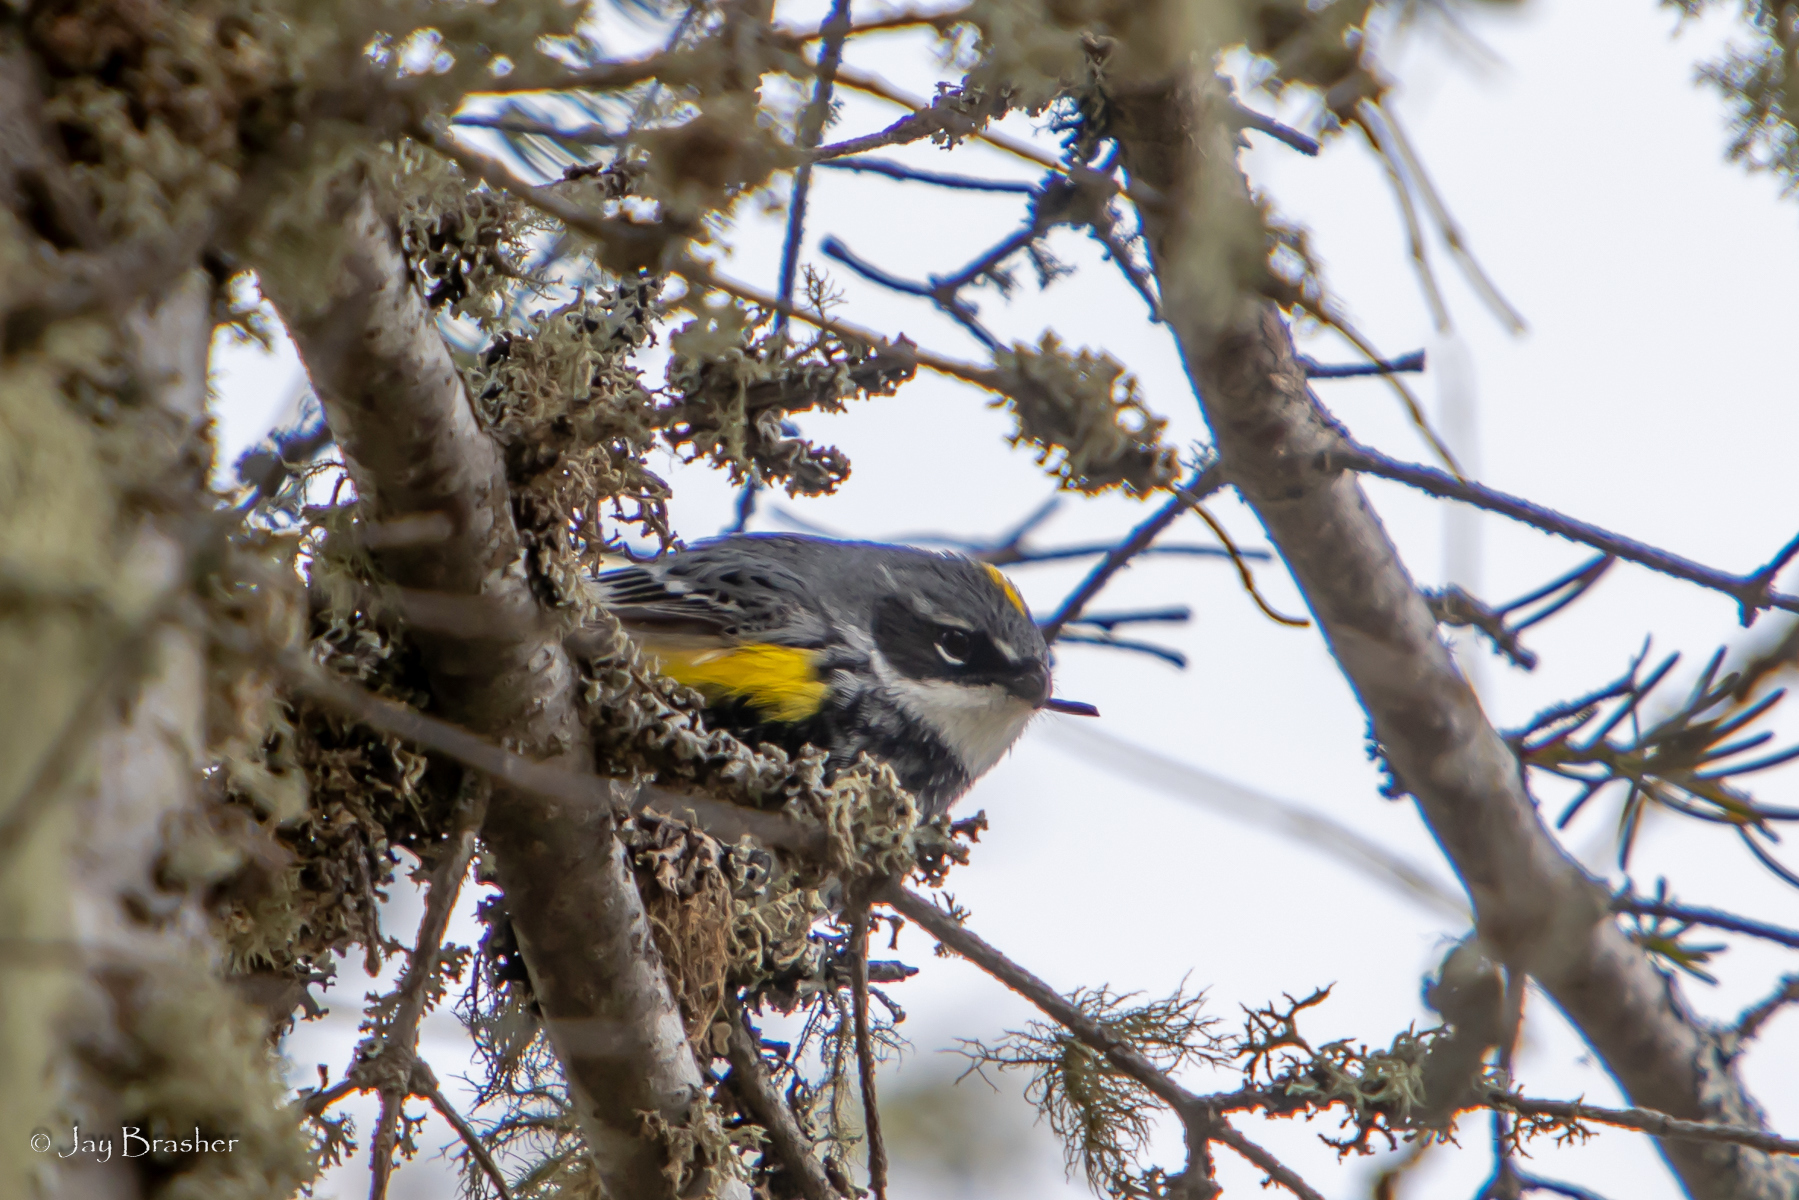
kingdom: Animalia
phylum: Chordata
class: Aves
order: Passeriformes
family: Parulidae
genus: Setophaga
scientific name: Setophaga coronata
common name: Myrtle warbler
